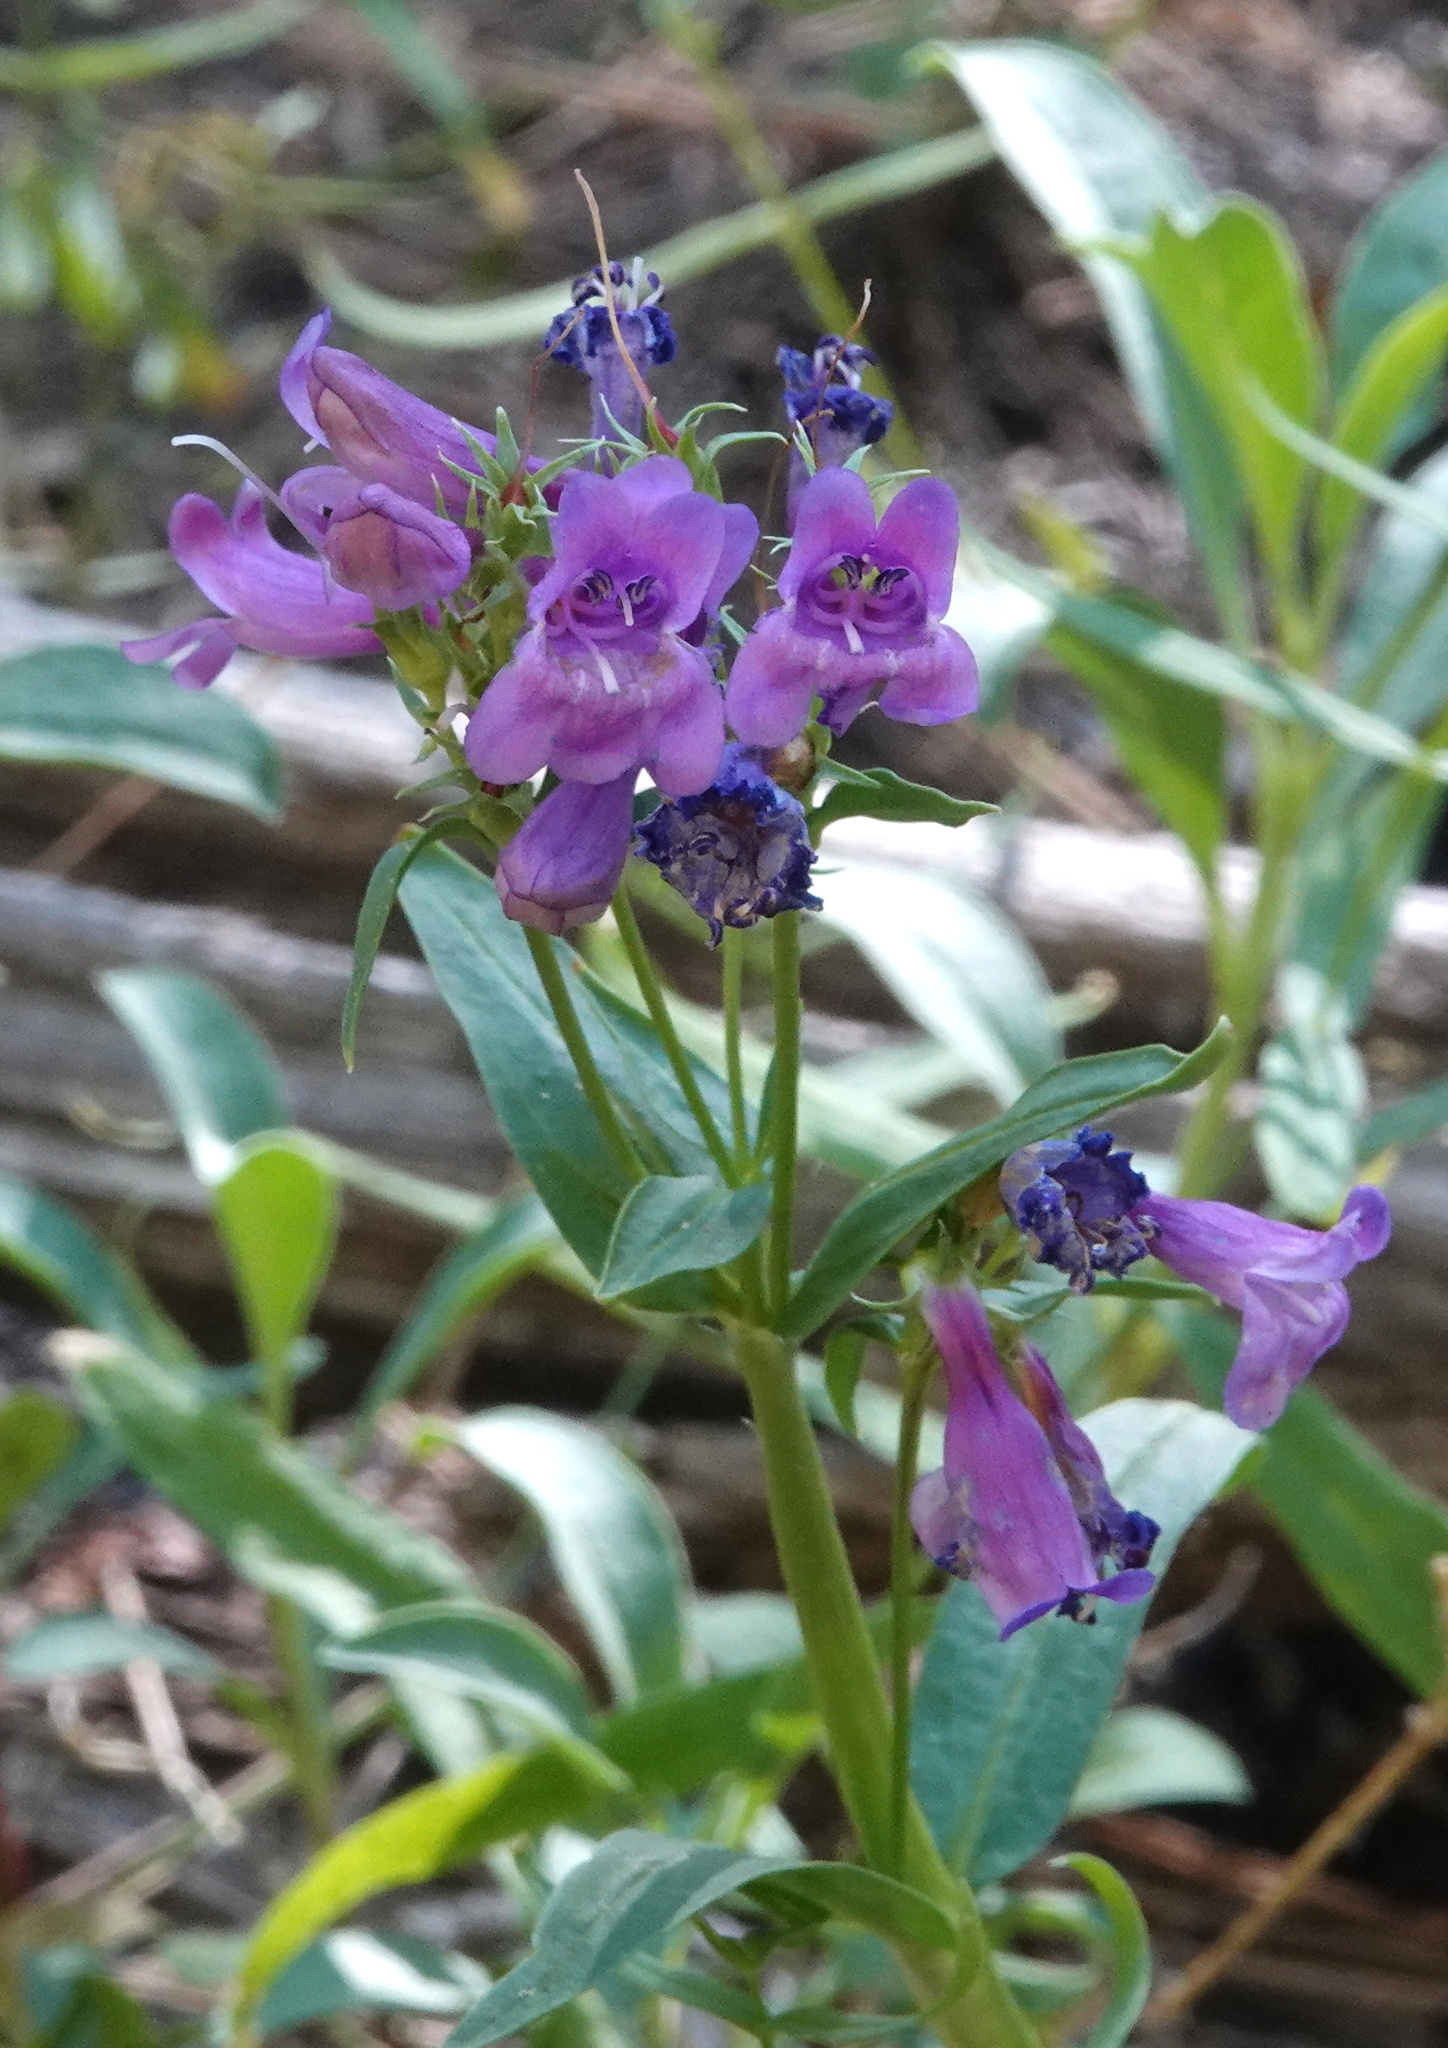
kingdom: Plantae
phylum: Tracheophyta
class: Magnoliopsida
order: Lamiales
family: Plantaginaceae
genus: Penstemon
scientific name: Penstemon leonardii
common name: Leonard's penstemon
